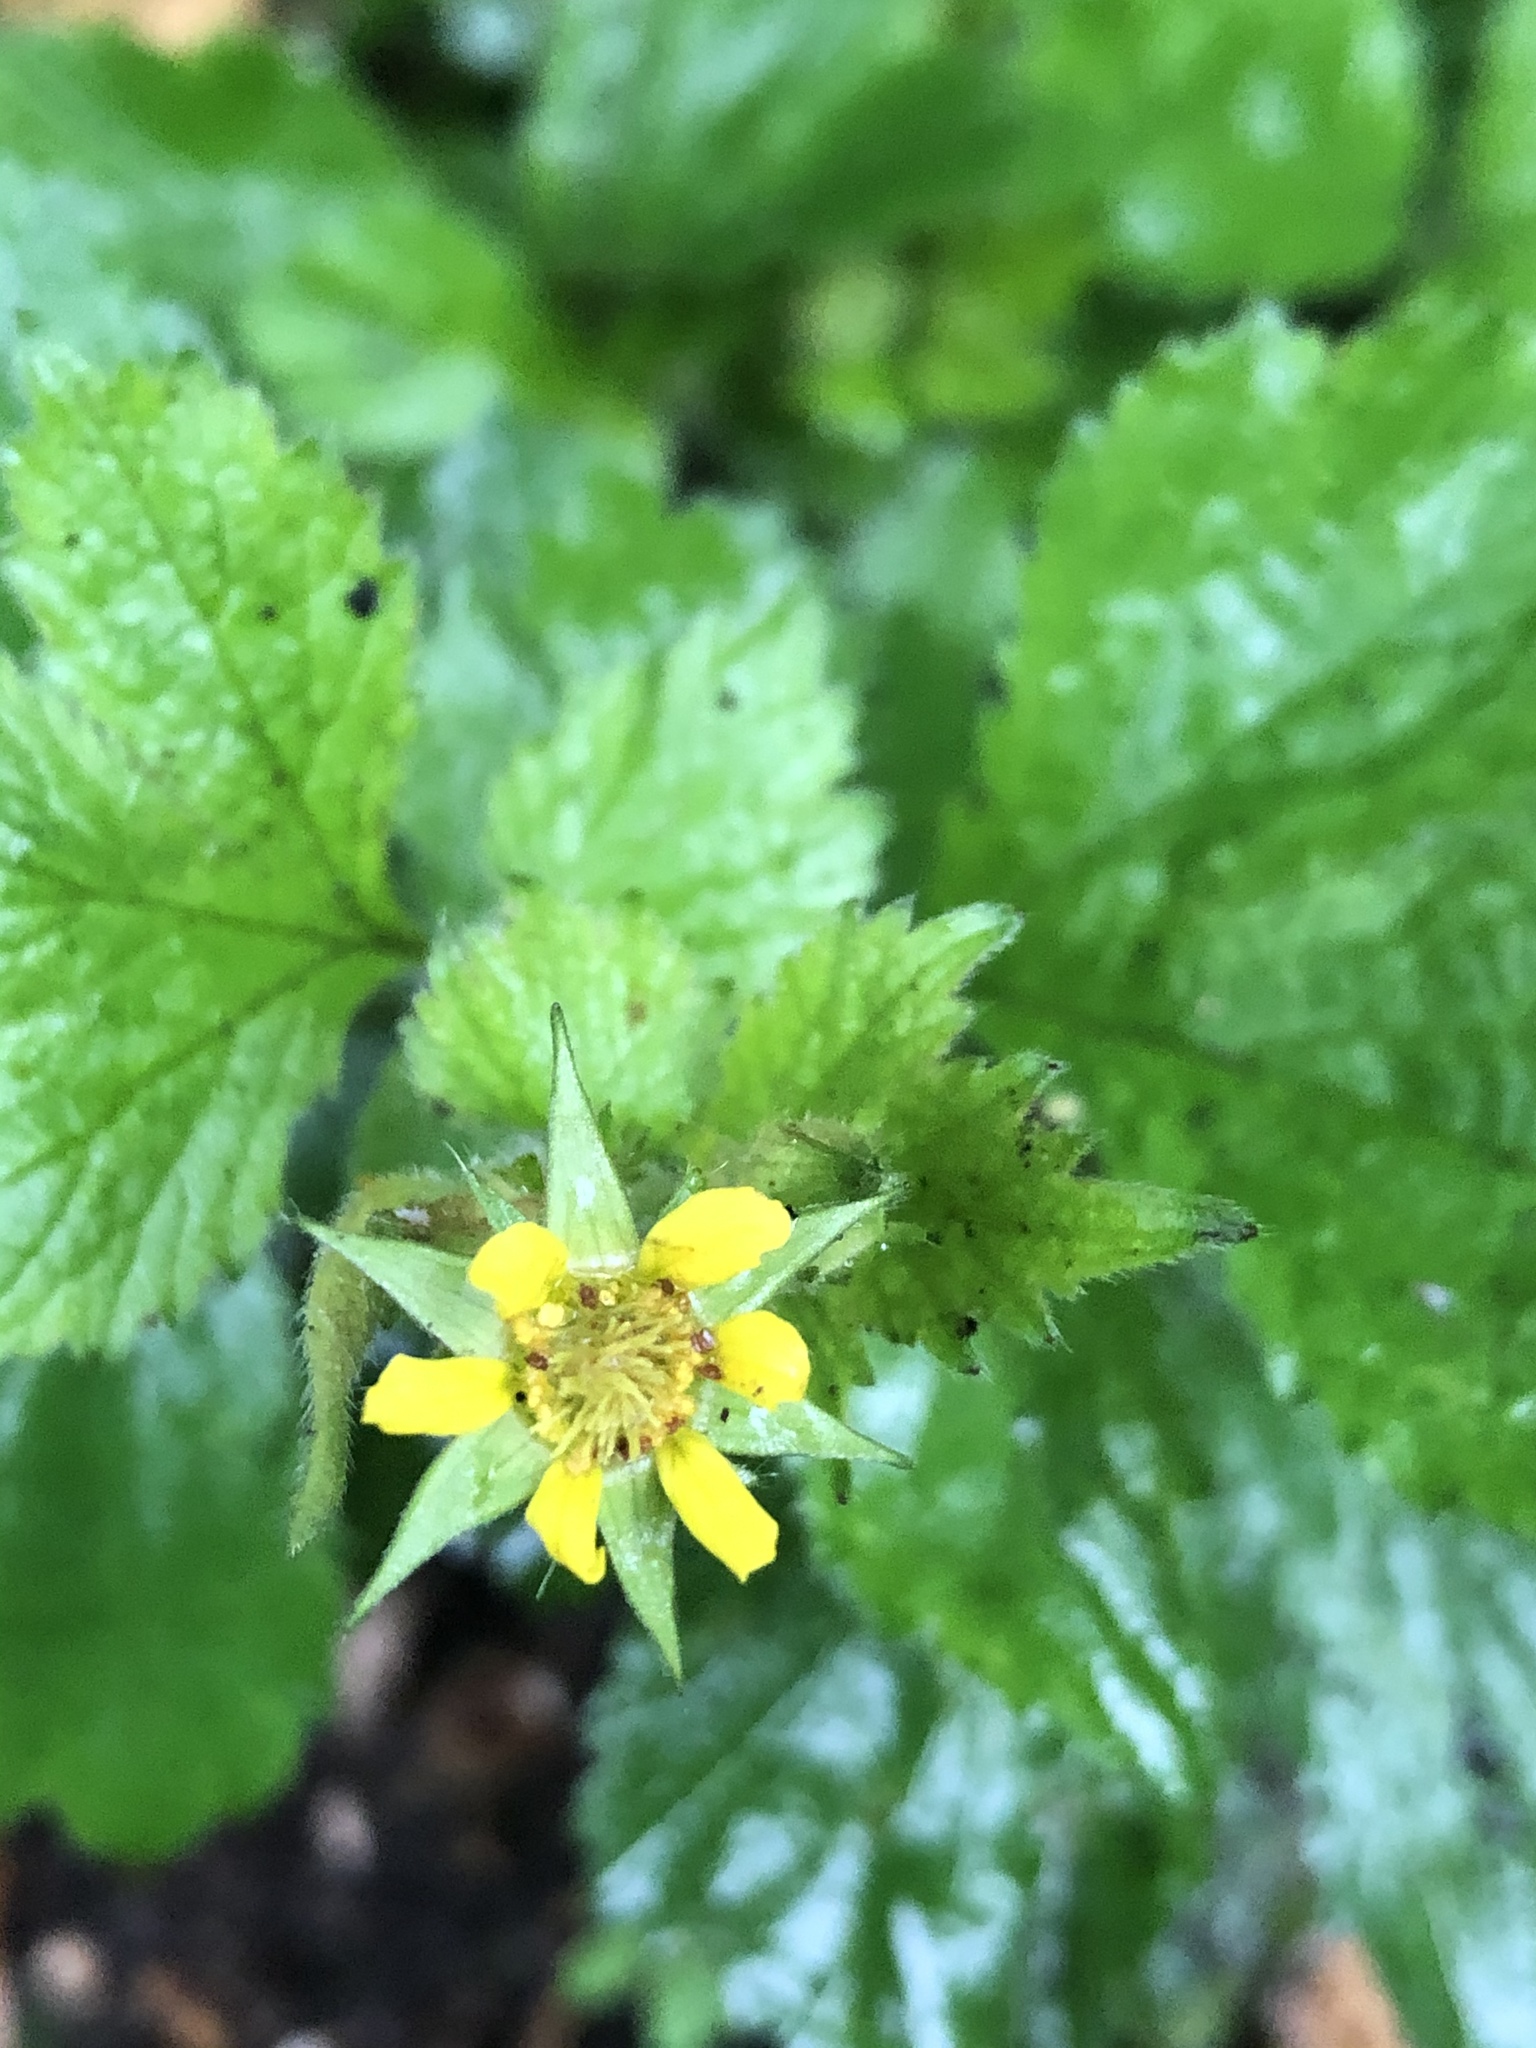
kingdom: Plantae
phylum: Tracheophyta
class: Magnoliopsida
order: Rosales
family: Rosaceae
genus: Geum
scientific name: Geum urbanum
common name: Wood avens
